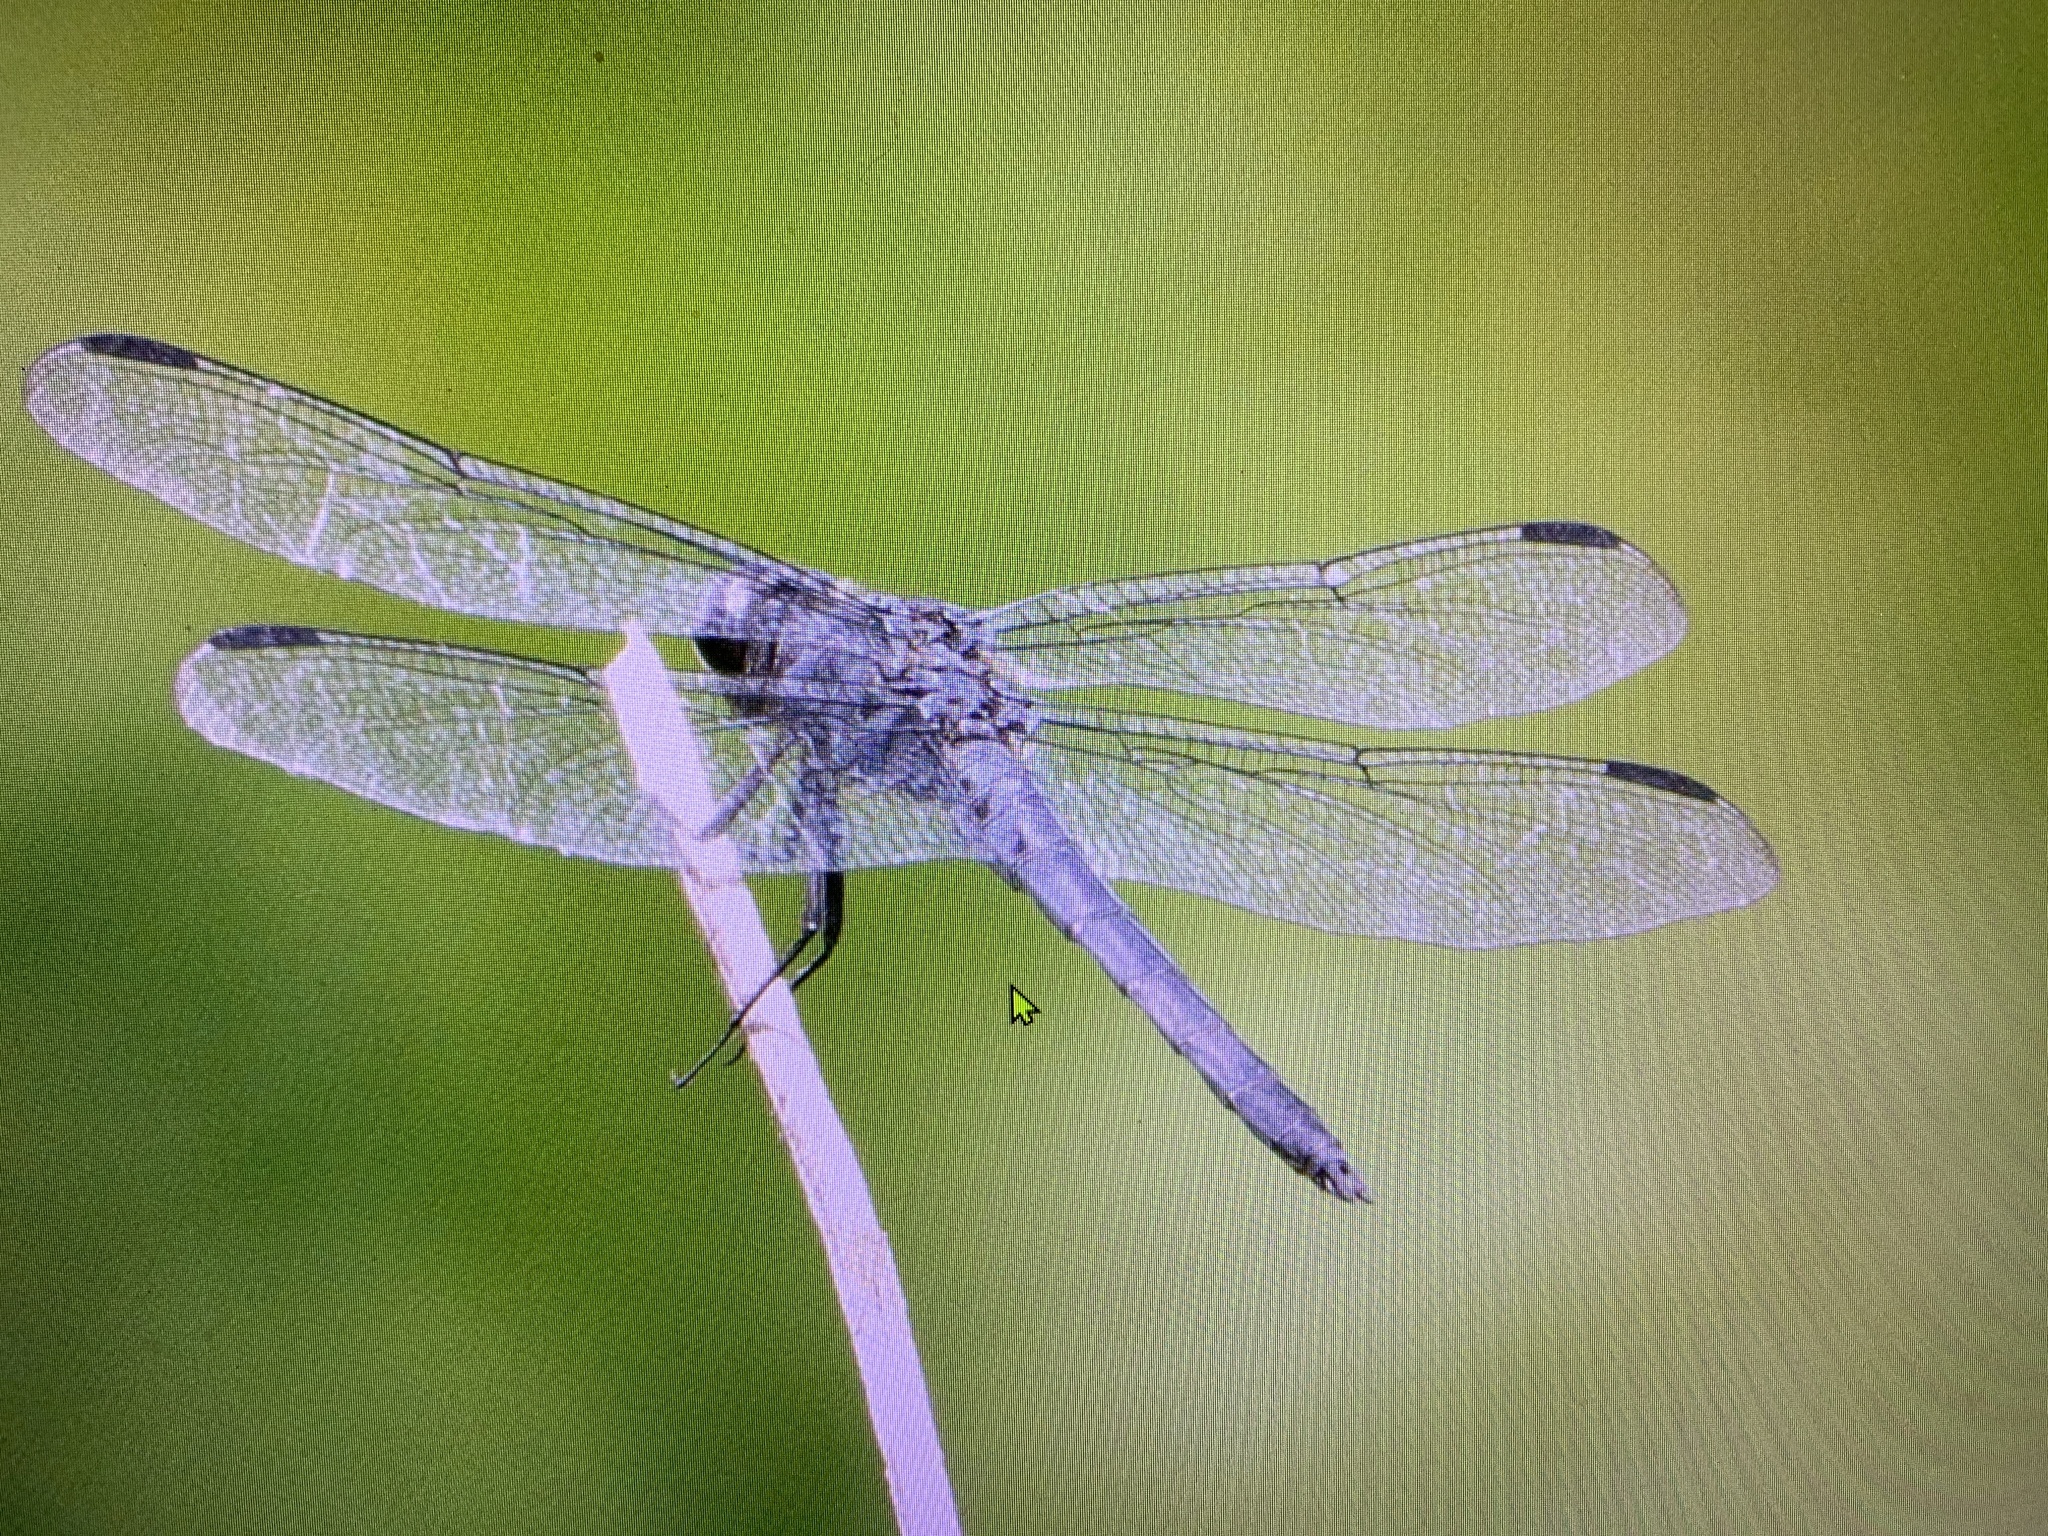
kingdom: Animalia
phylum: Arthropoda
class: Insecta
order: Odonata
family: Libellulidae
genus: Libellula
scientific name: Libellula incesta
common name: Slaty skimmer
